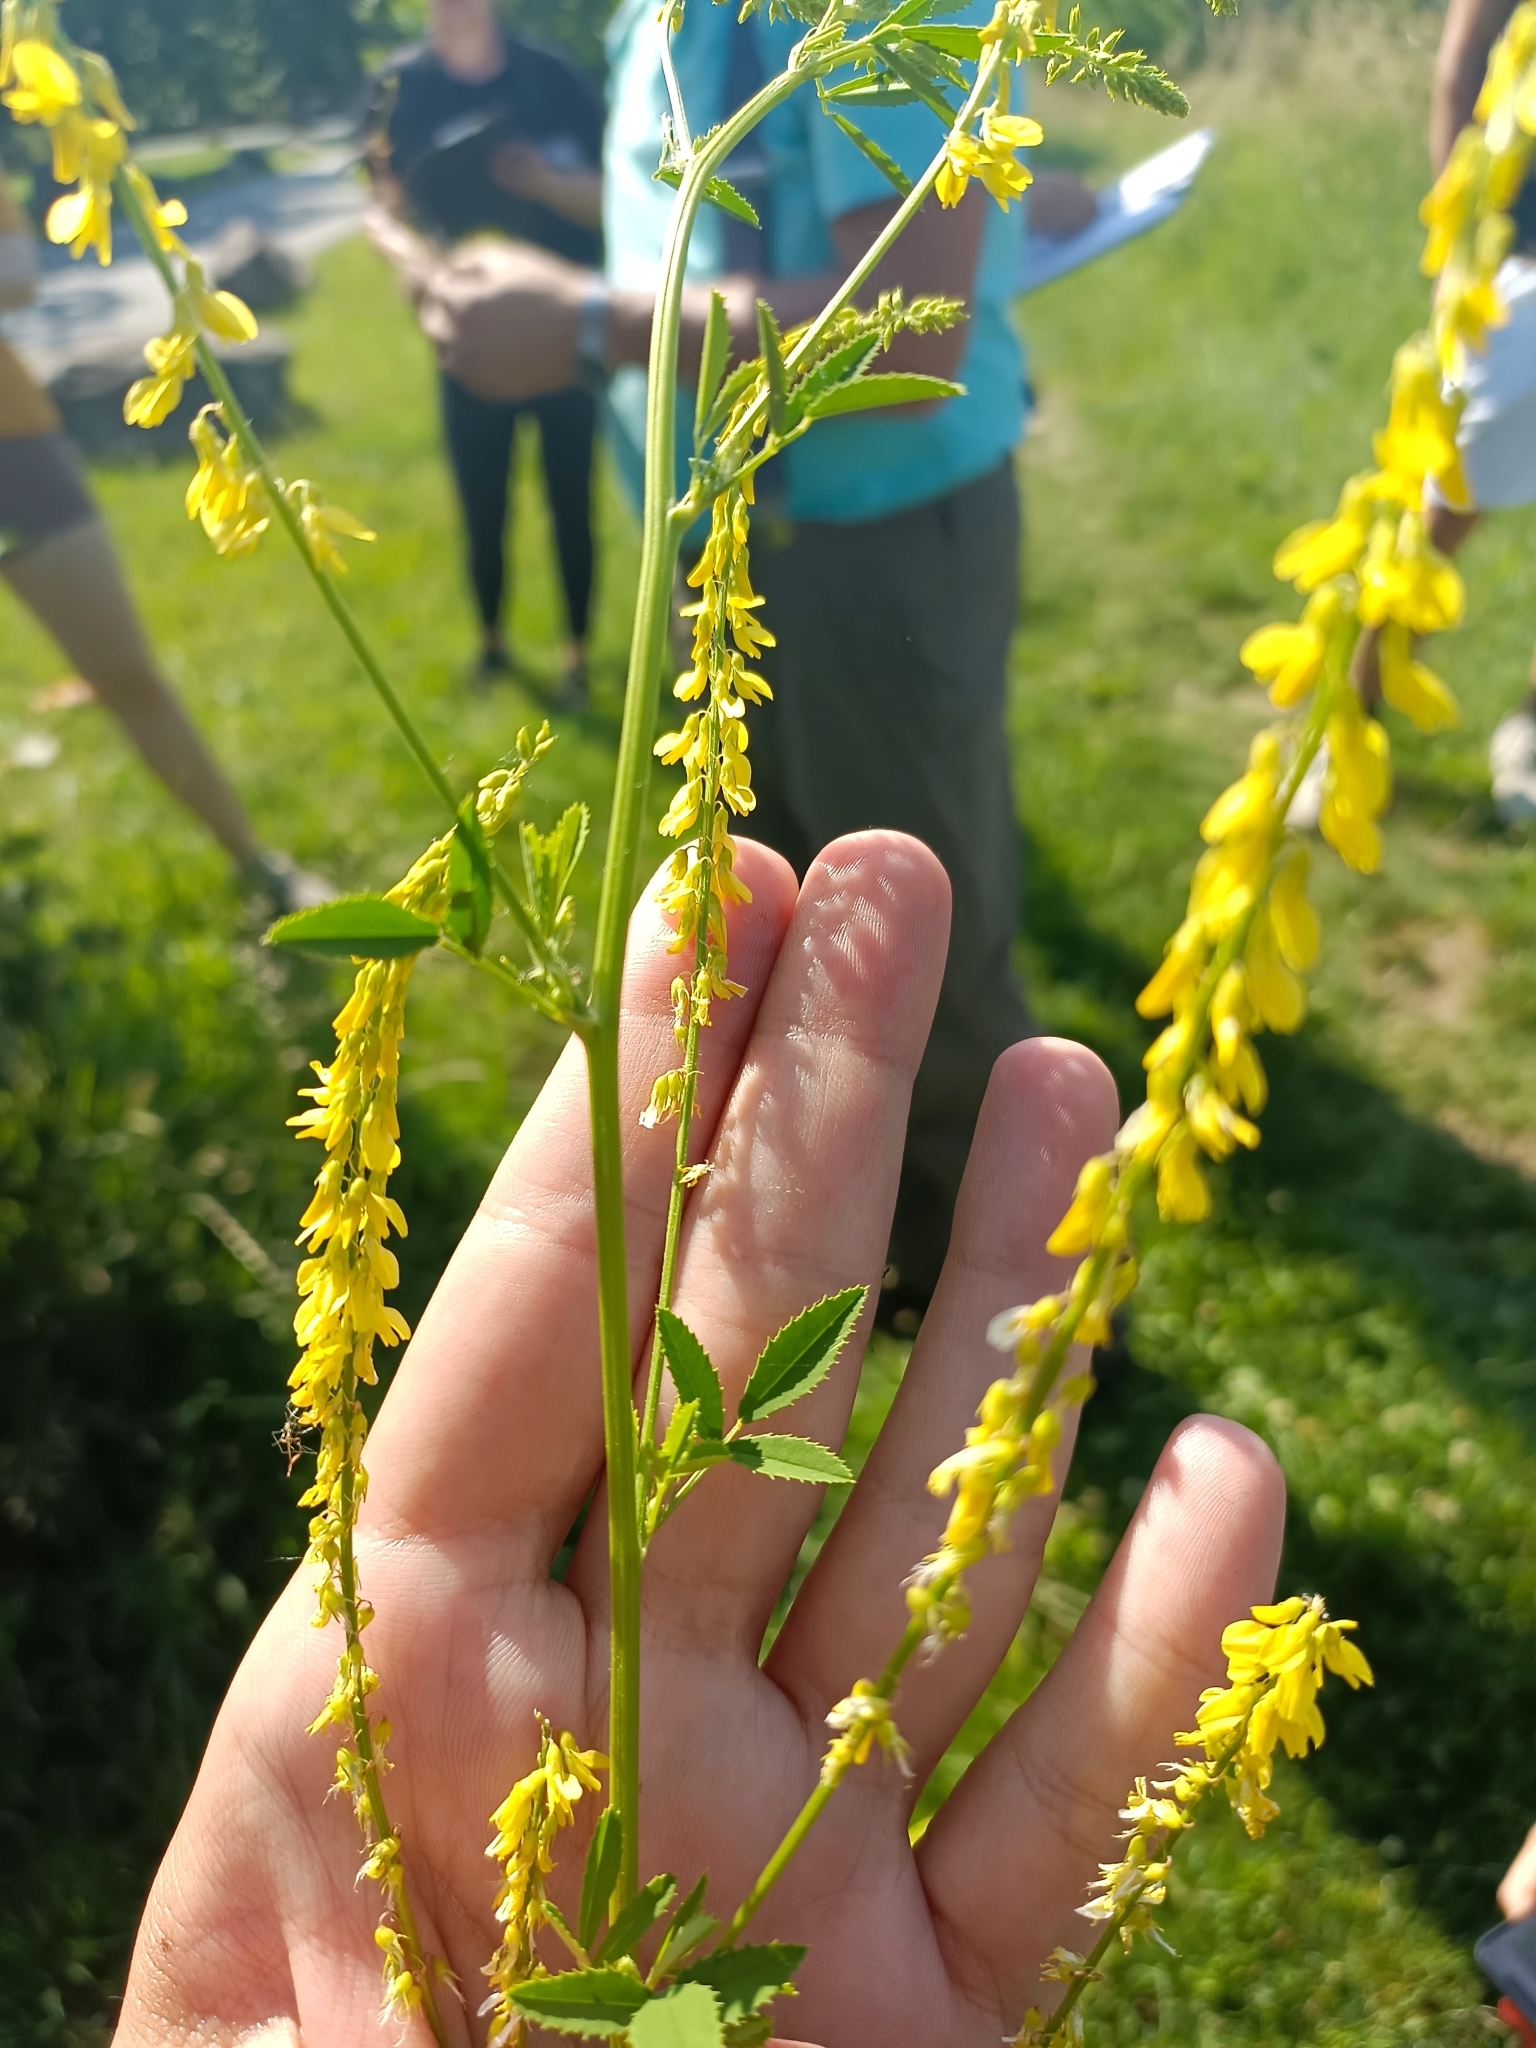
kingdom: Plantae
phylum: Tracheophyta
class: Magnoliopsida
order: Fabales
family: Fabaceae
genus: Melilotus
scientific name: Melilotus officinalis
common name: Sweetclover
